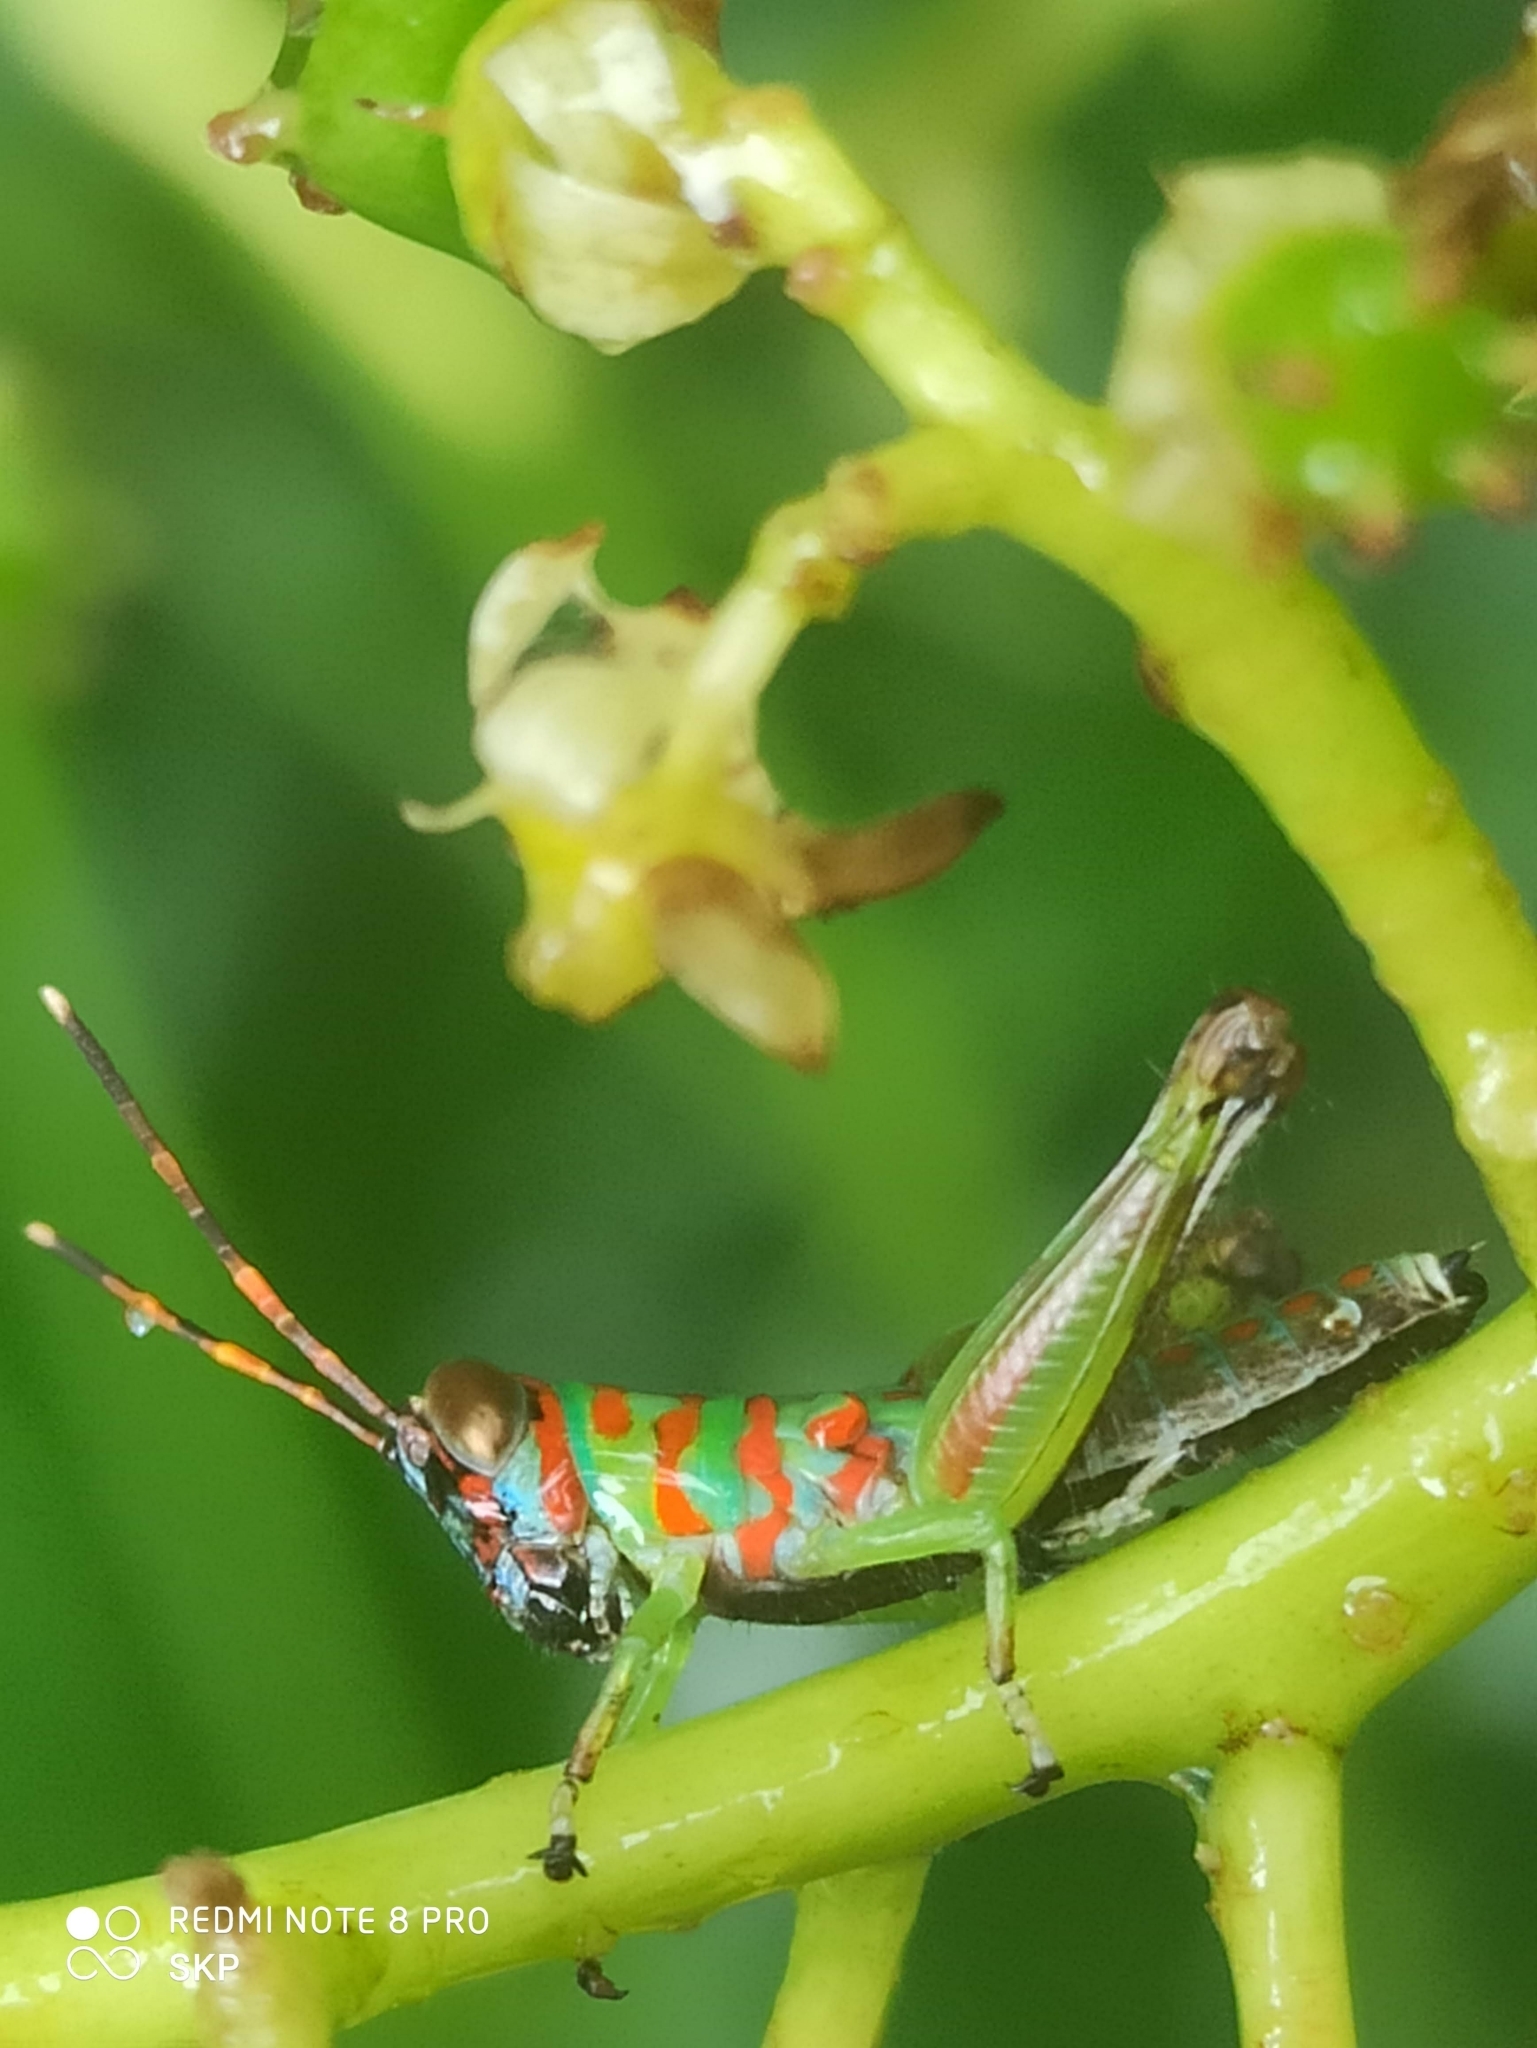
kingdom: Animalia
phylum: Arthropoda
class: Insecta
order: Orthoptera
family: Acrididae
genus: Pirithoicus
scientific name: Pirithoicus ophthalmicus
